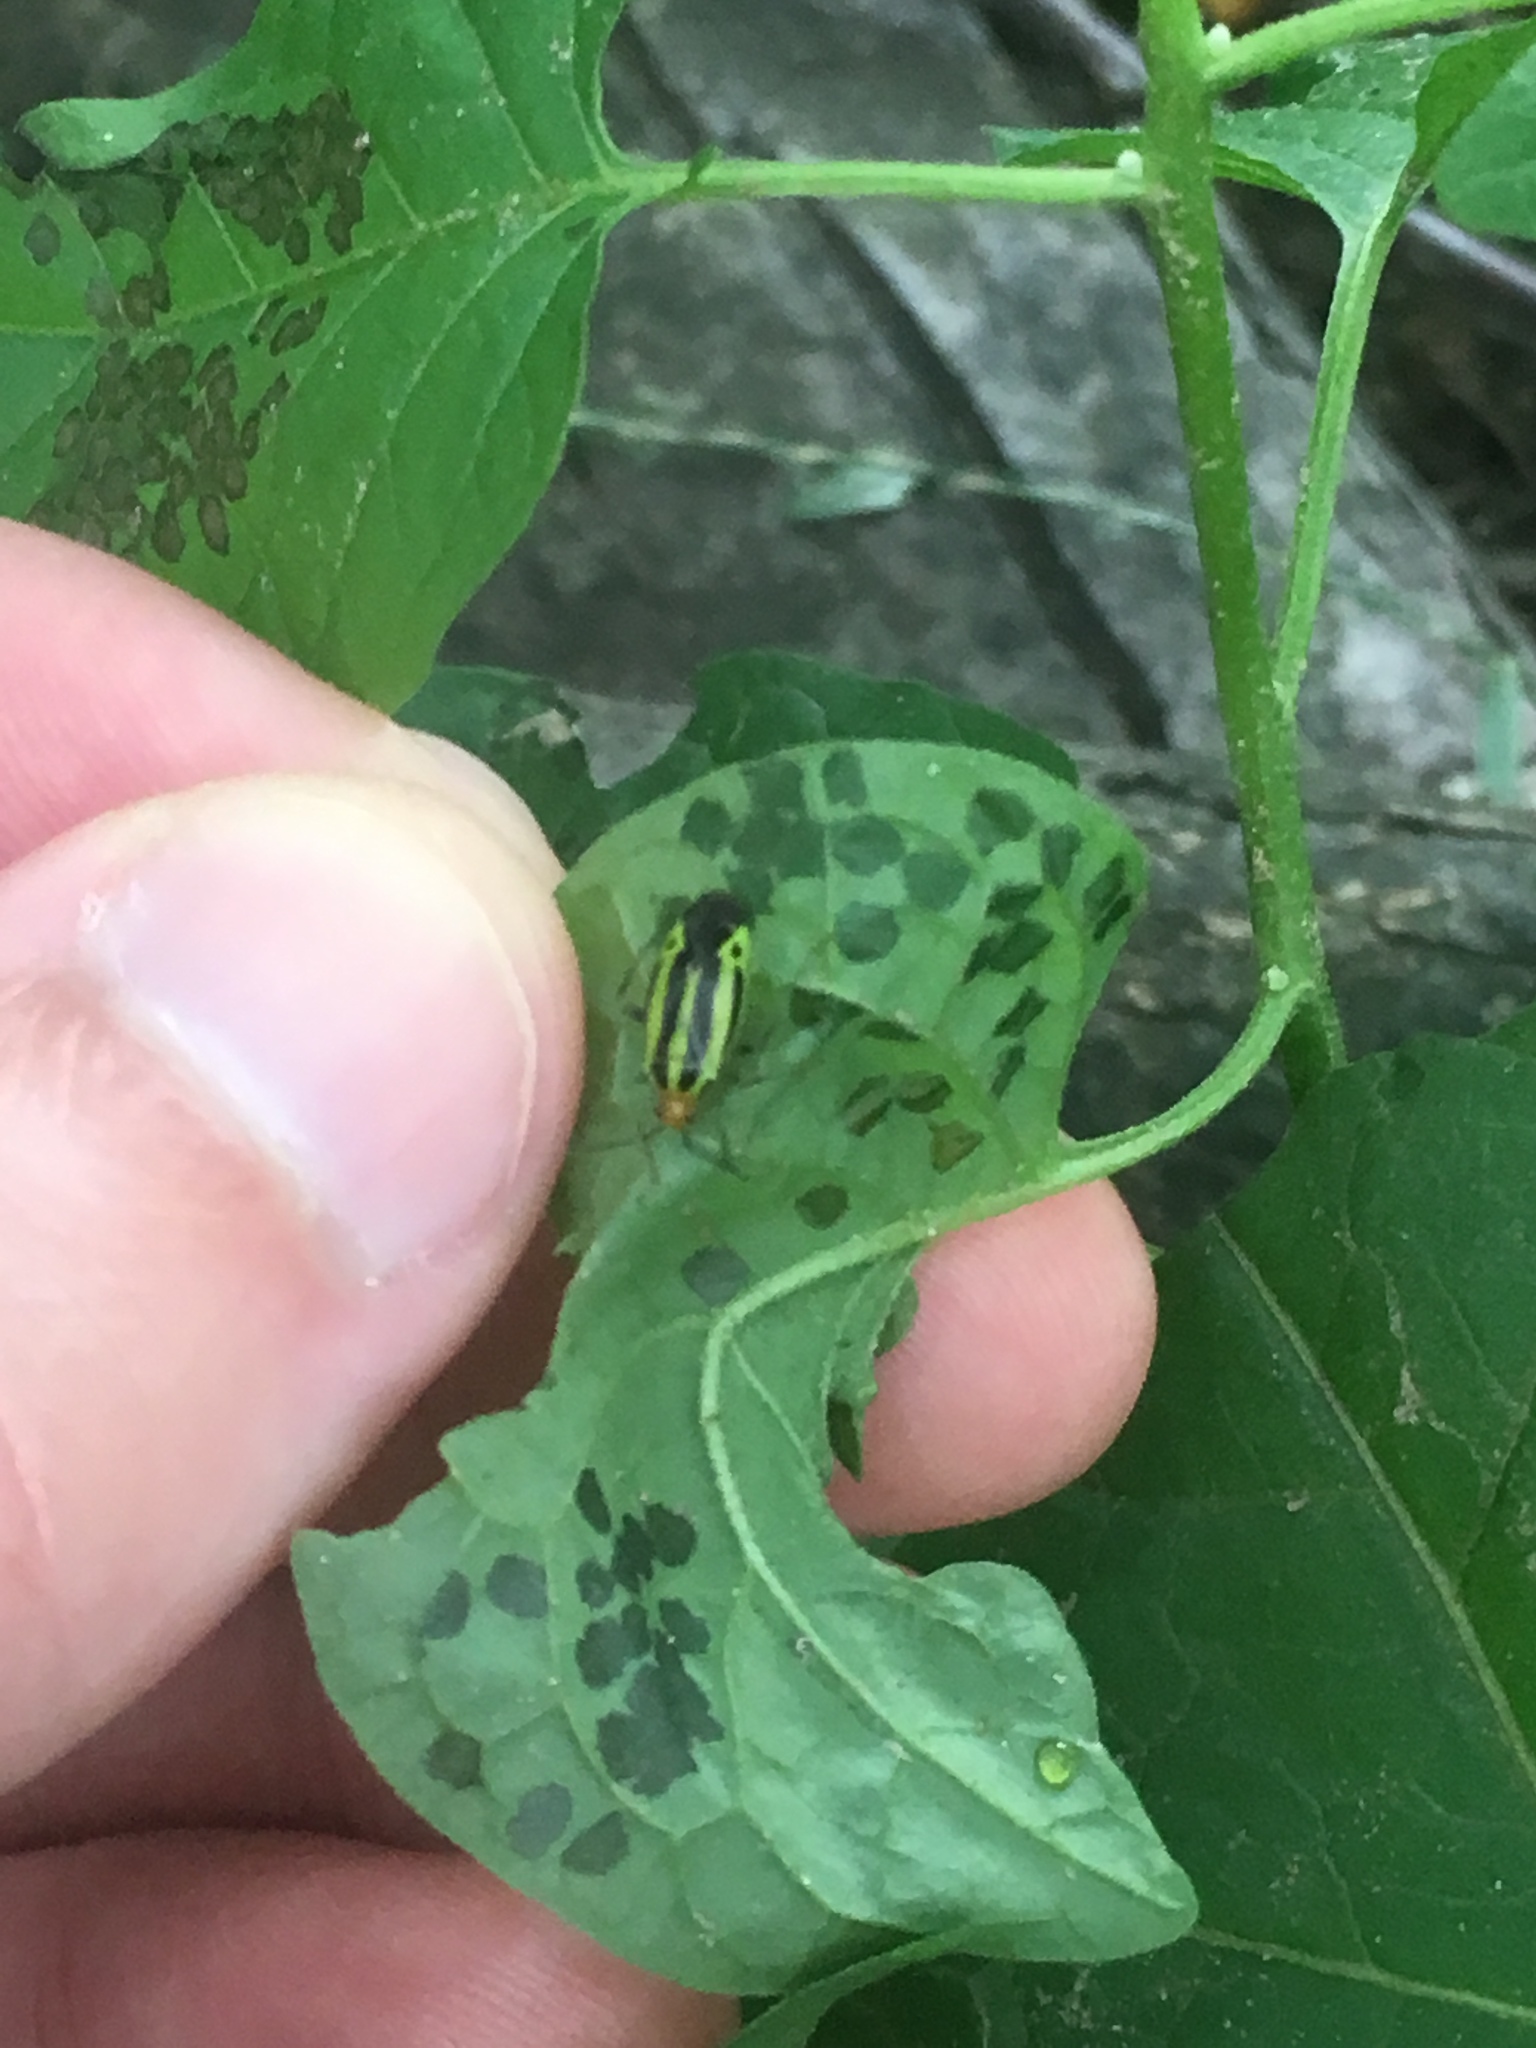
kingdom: Animalia
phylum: Arthropoda
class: Insecta
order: Hemiptera
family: Miridae
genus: Poecilocapsus
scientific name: Poecilocapsus lineatus
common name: Four-lined plant bug
